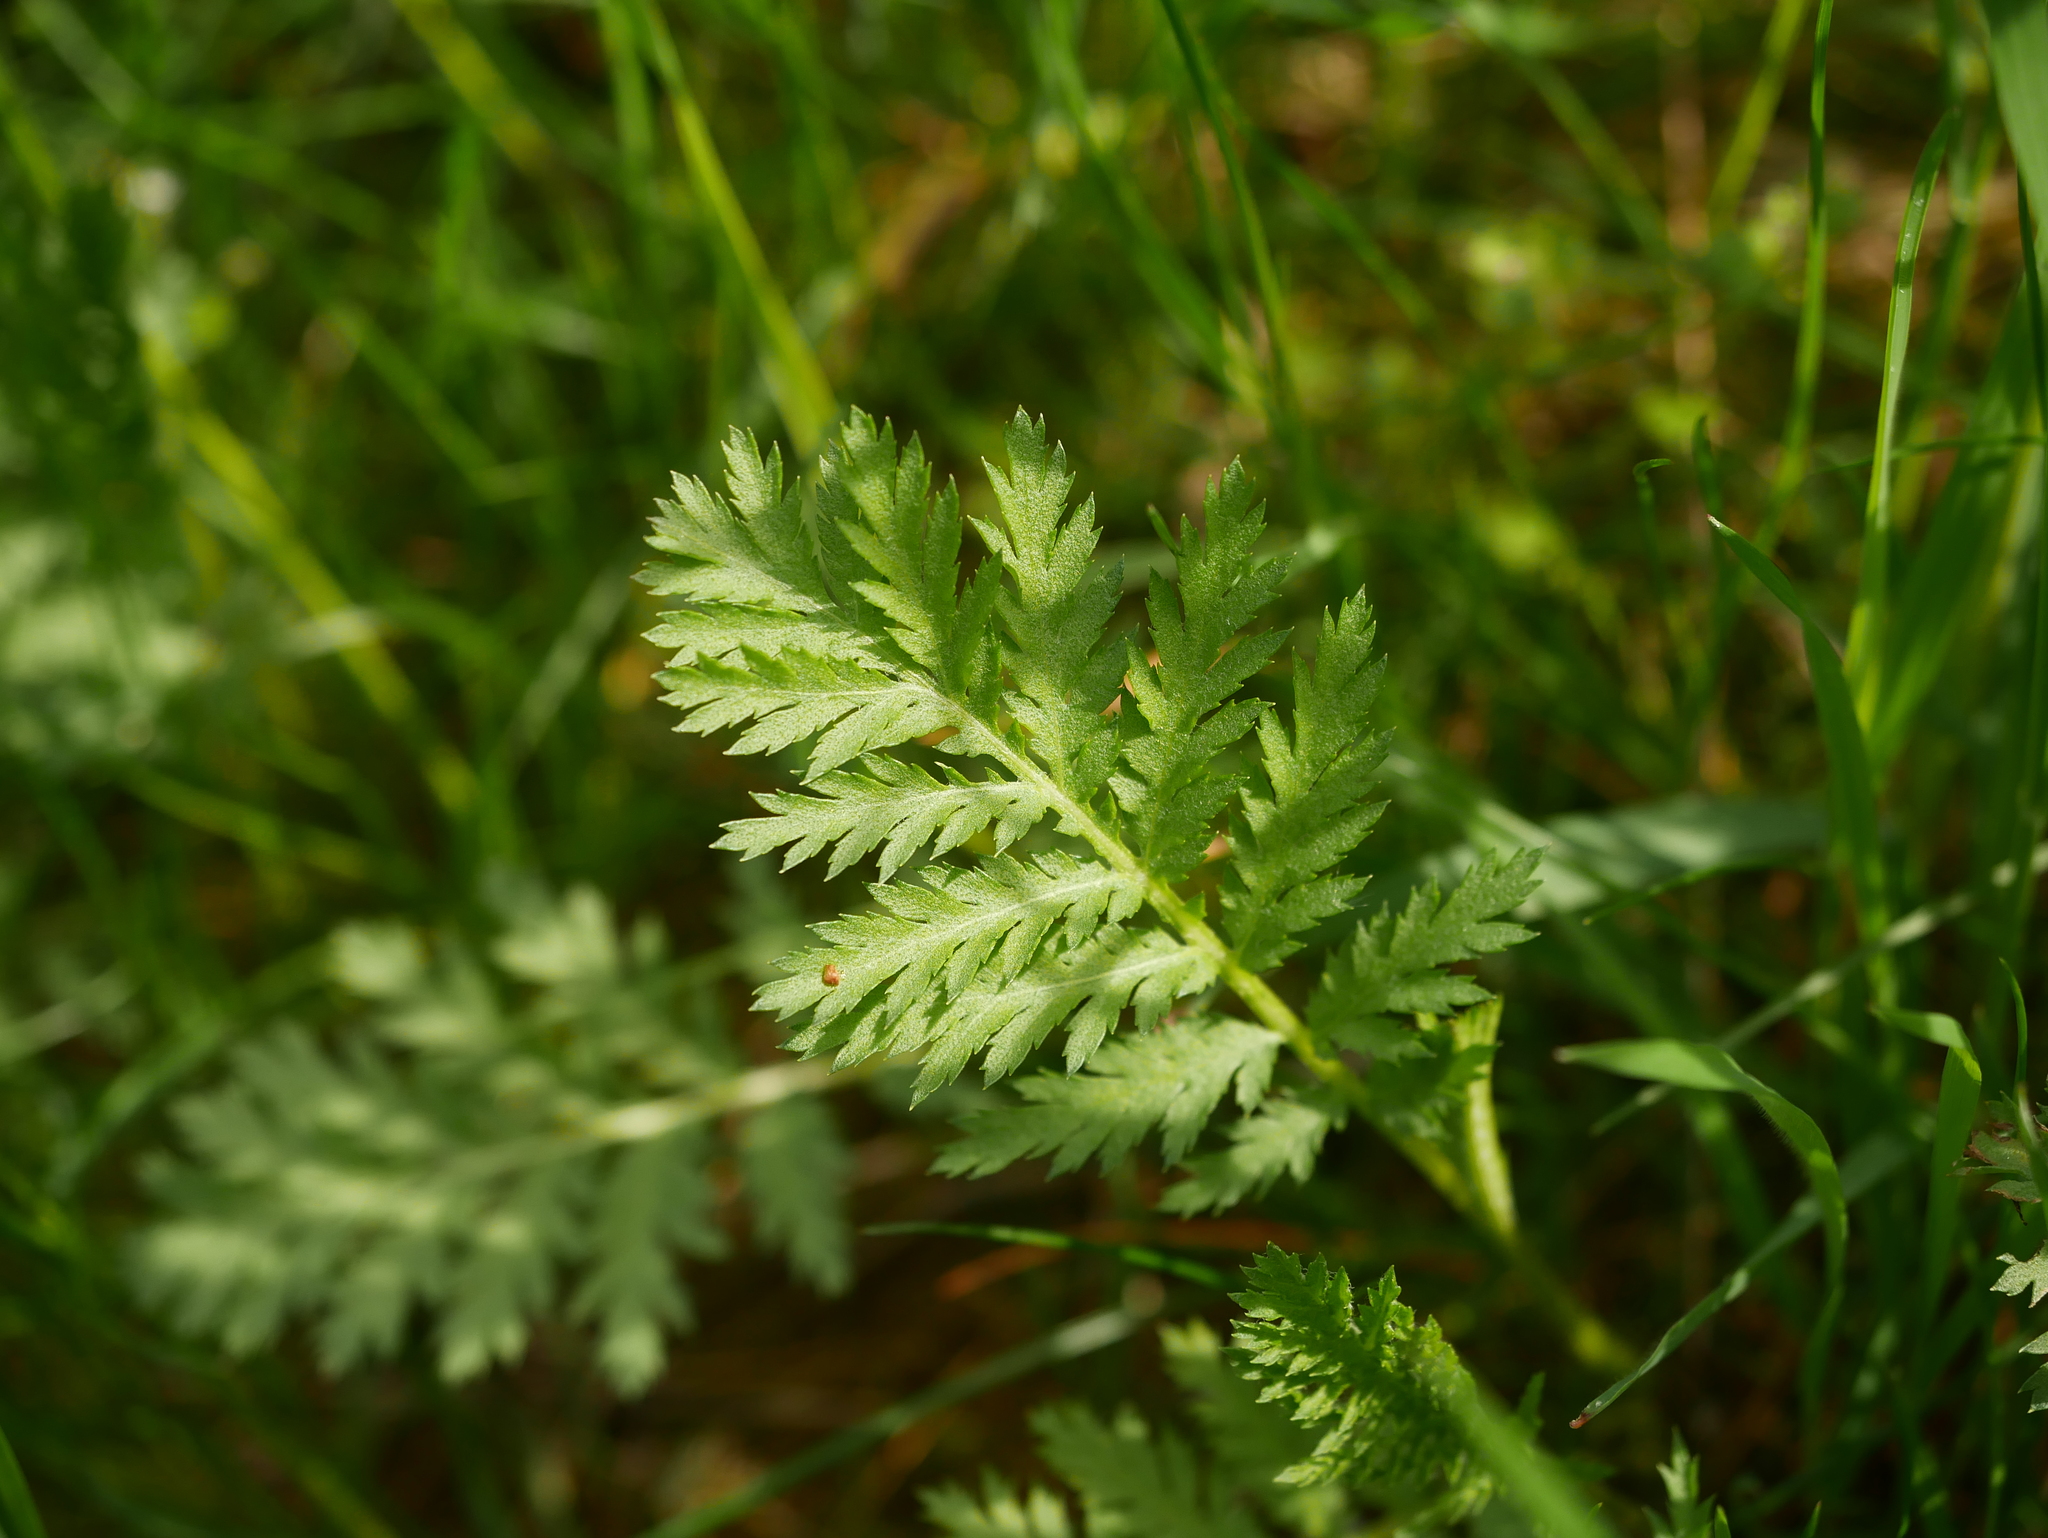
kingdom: Plantae
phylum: Tracheophyta
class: Magnoliopsida
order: Asterales
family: Asteraceae
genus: Tanacetum
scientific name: Tanacetum vulgare
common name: Common tansy
